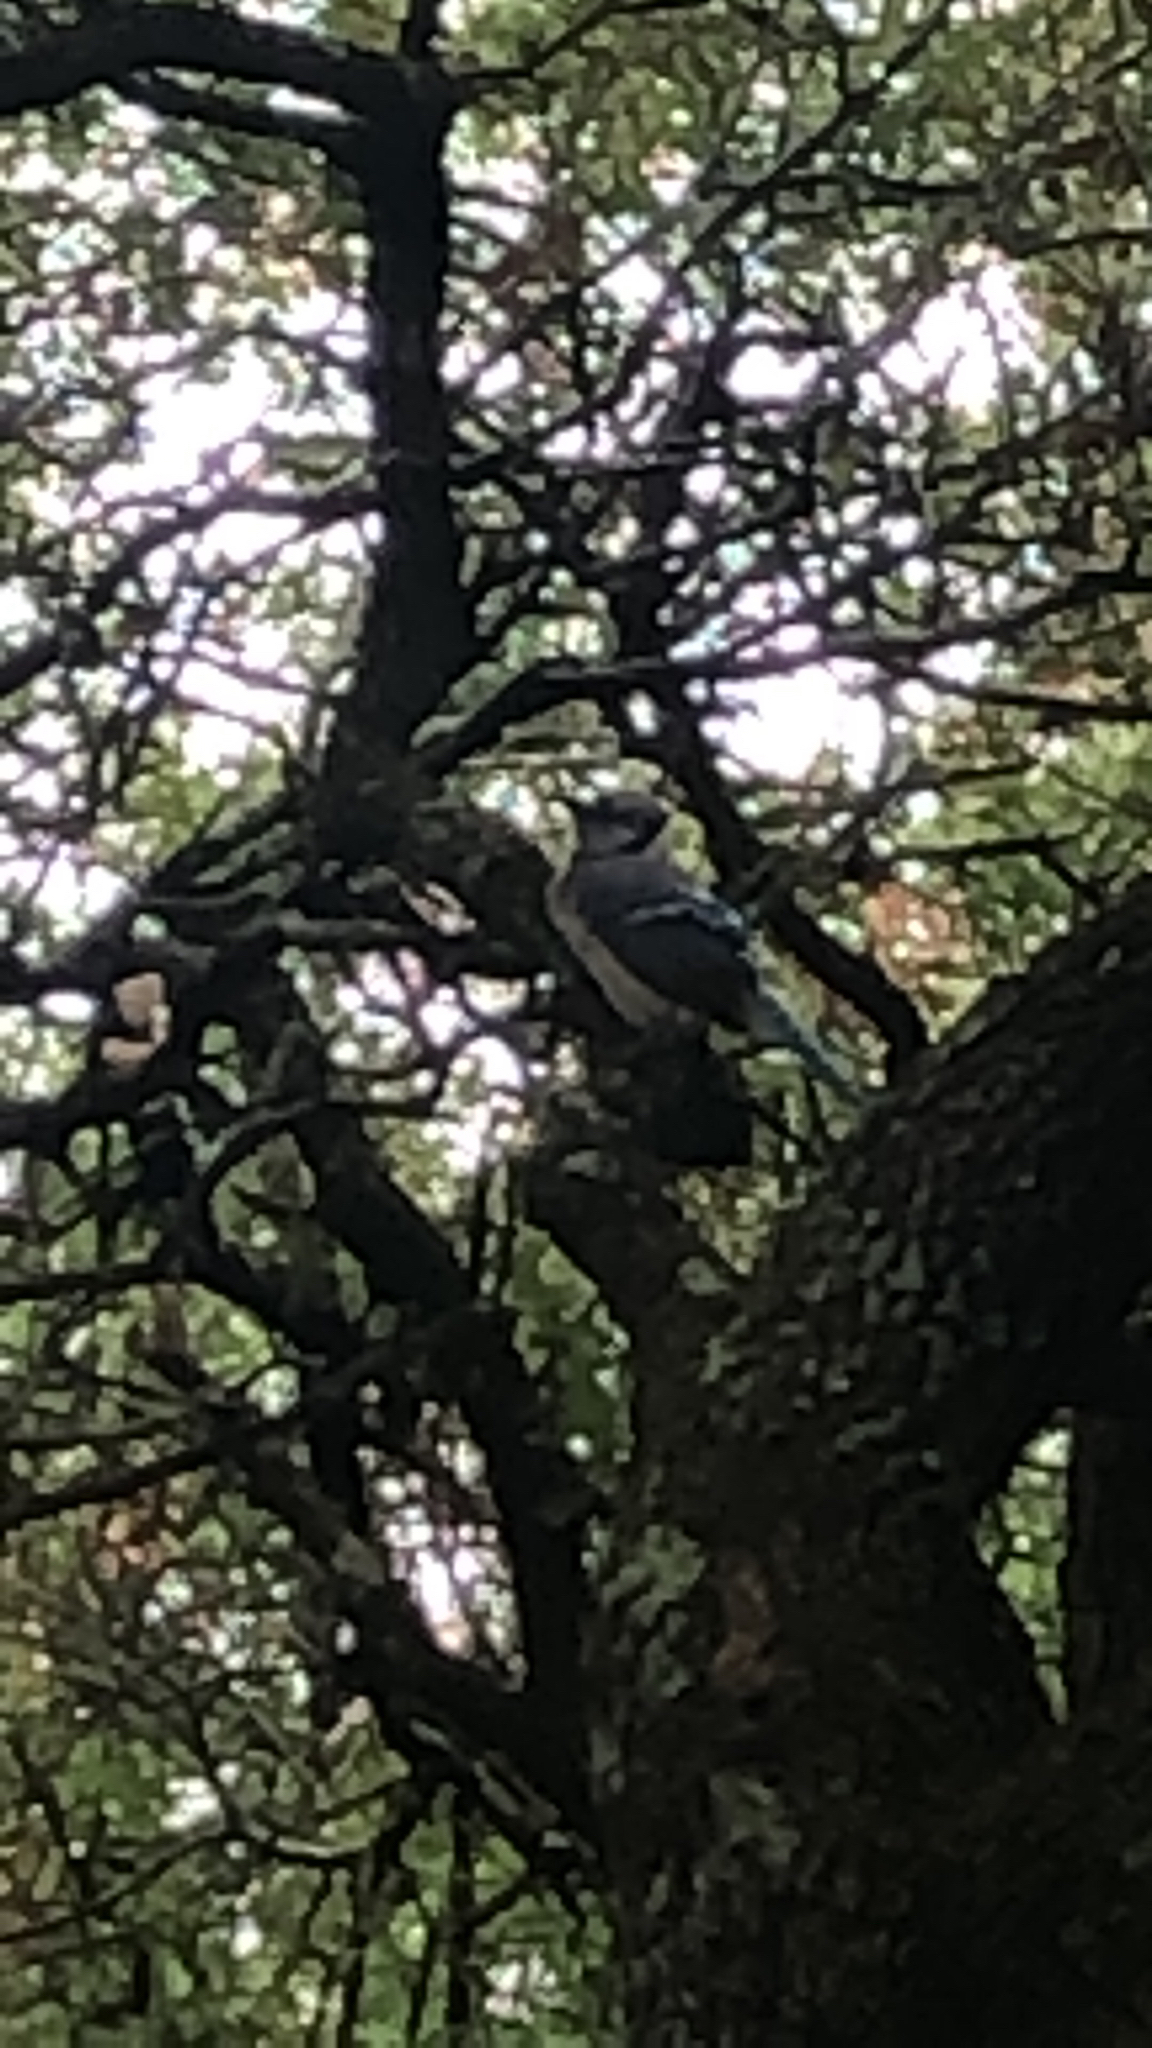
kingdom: Animalia
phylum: Chordata
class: Aves
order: Passeriformes
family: Corvidae
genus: Cyanocitta
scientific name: Cyanocitta cristata
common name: Blue jay
